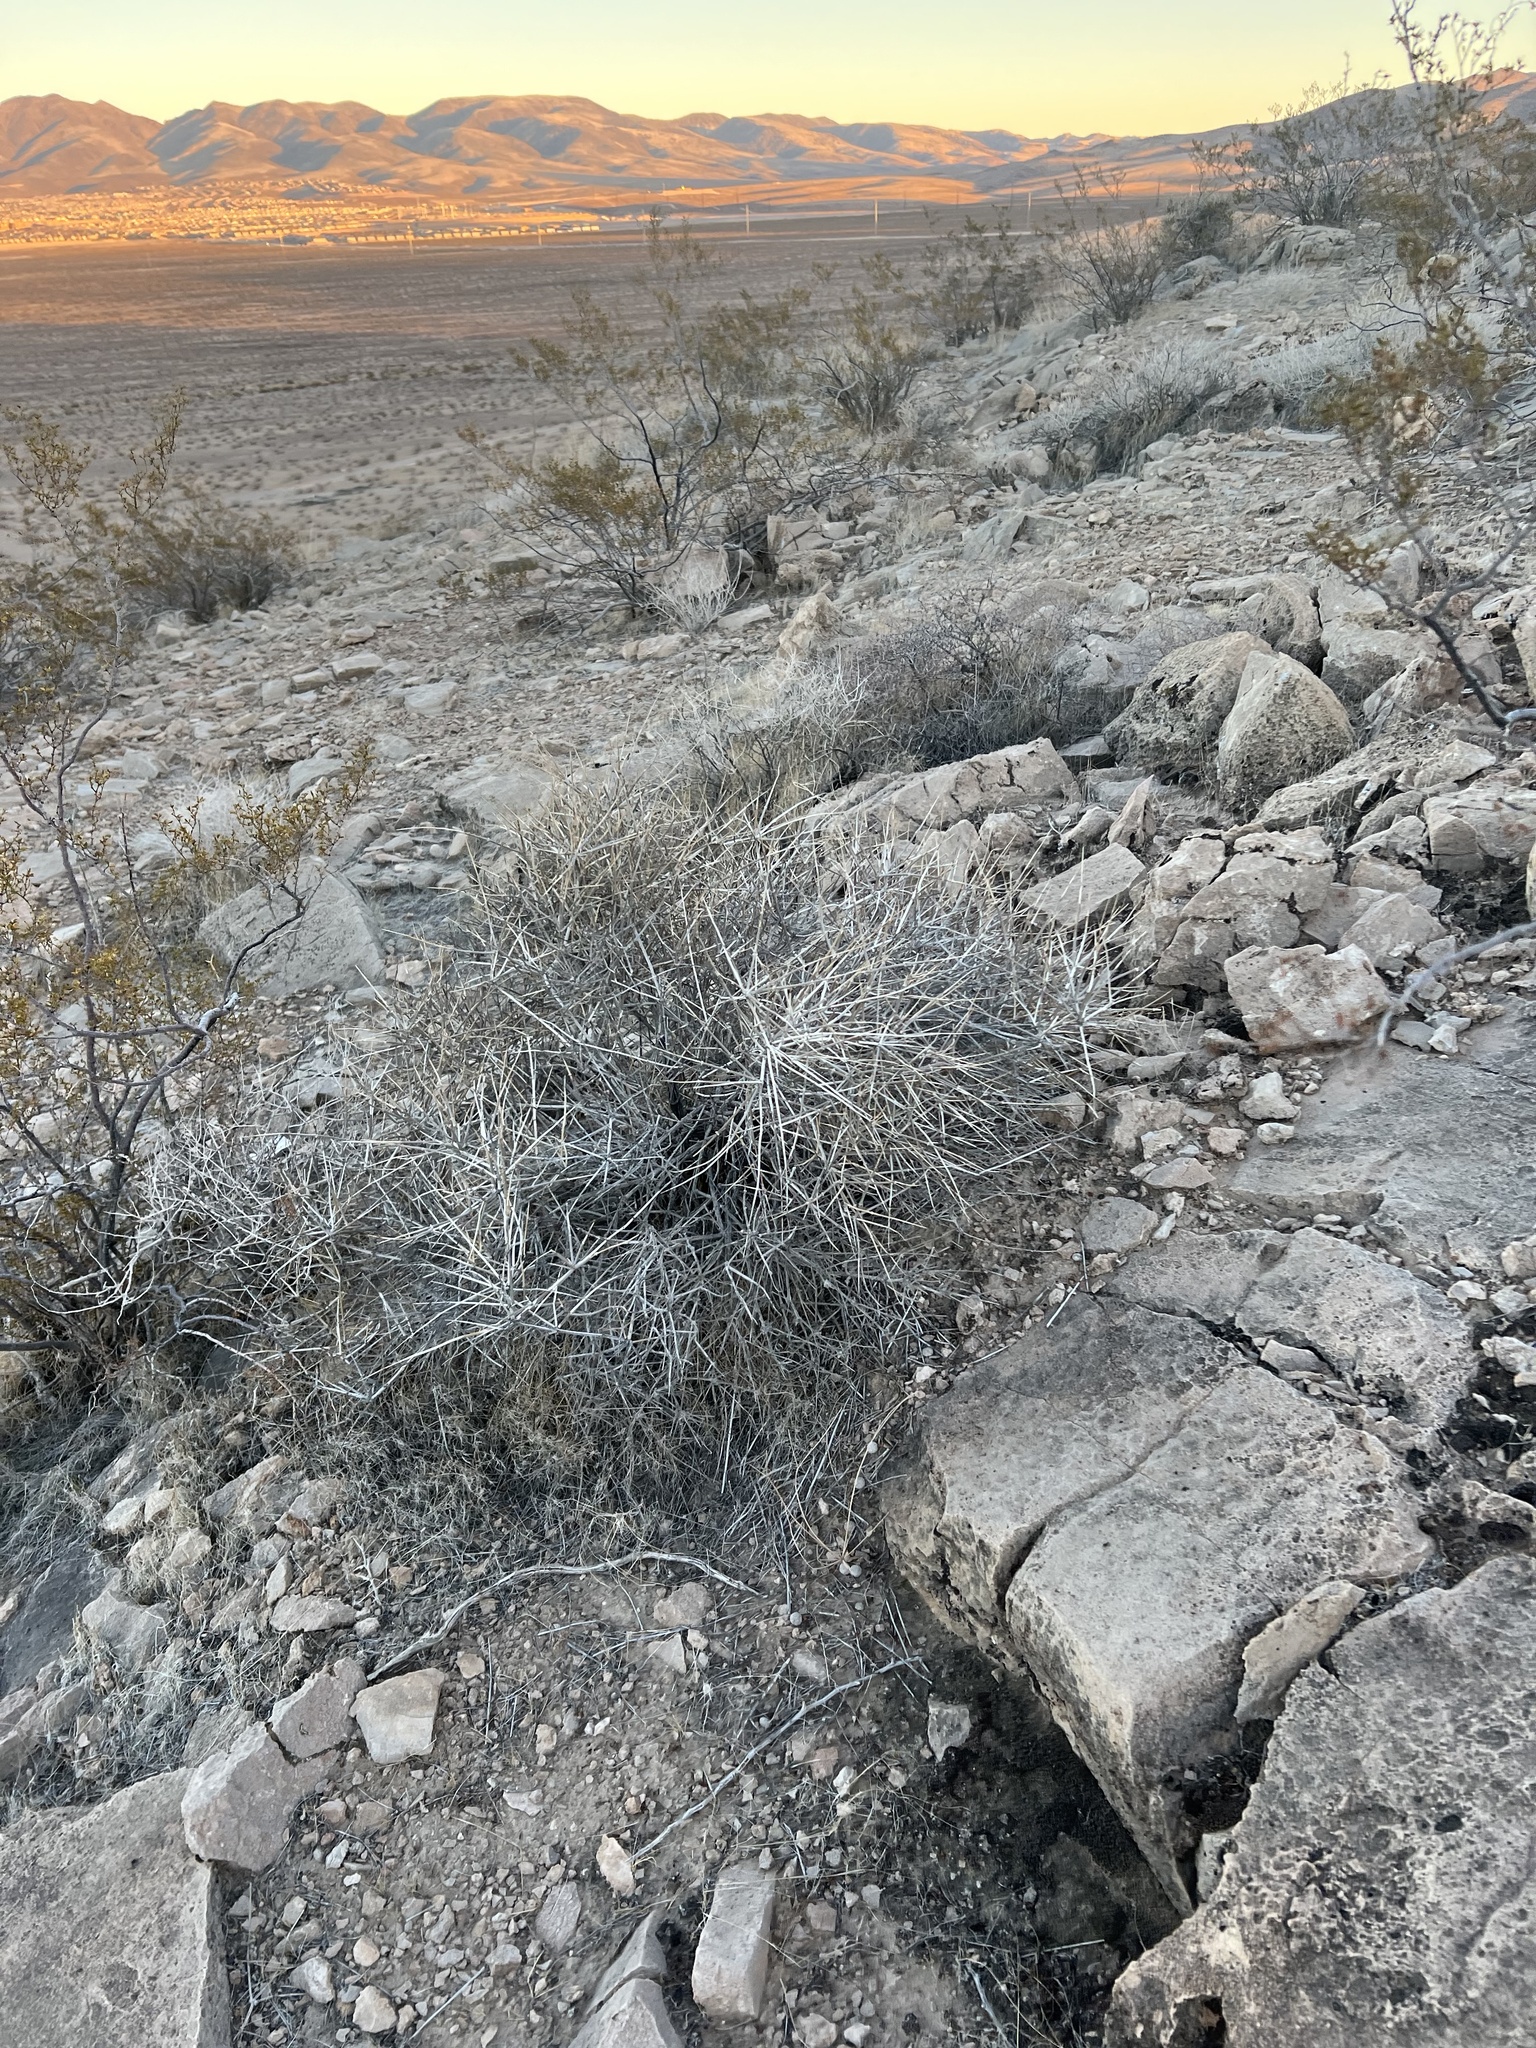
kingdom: Plantae
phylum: Tracheophyta
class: Gnetopsida
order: Ephedrales
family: Ephedraceae
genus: Ephedra
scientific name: Ephedra nevadensis
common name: Gray ephedra
